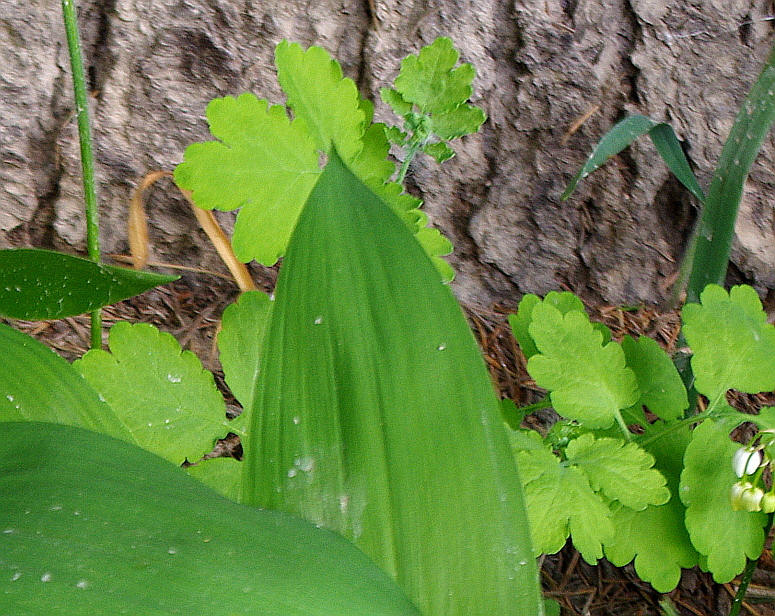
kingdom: Plantae
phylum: Tracheophyta
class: Magnoliopsida
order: Ranunculales
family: Papaveraceae
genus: Chelidonium
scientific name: Chelidonium majus
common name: Greater celandine
